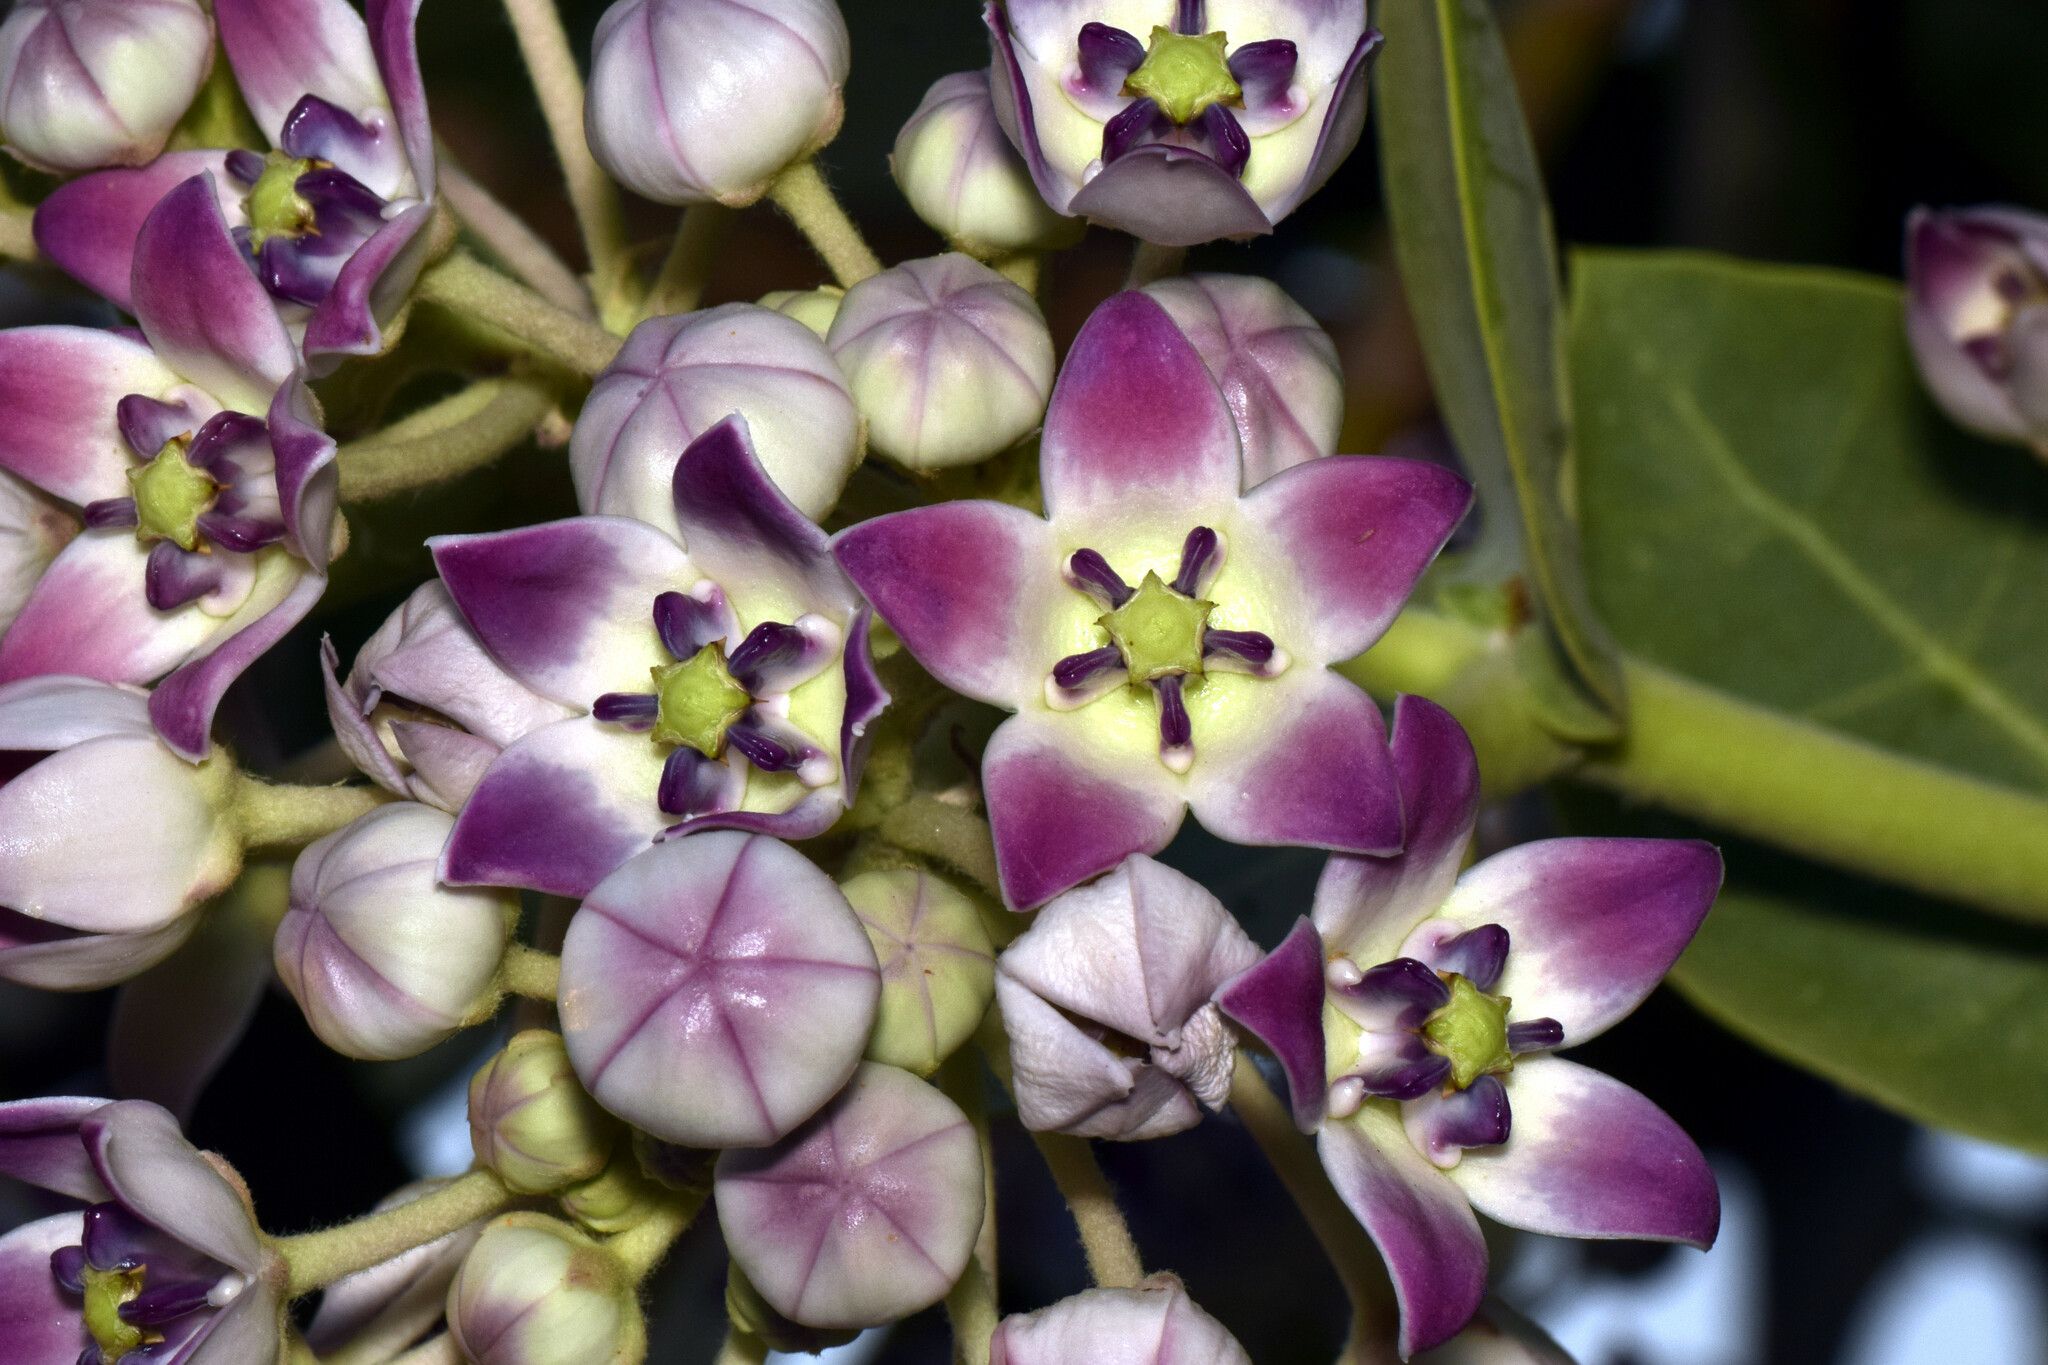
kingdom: Plantae
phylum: Tracheophyta
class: Magnoliopsida
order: Gentianales
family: Apocynaceae
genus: Calotropis
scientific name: Calotropis procera
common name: Roostertree
